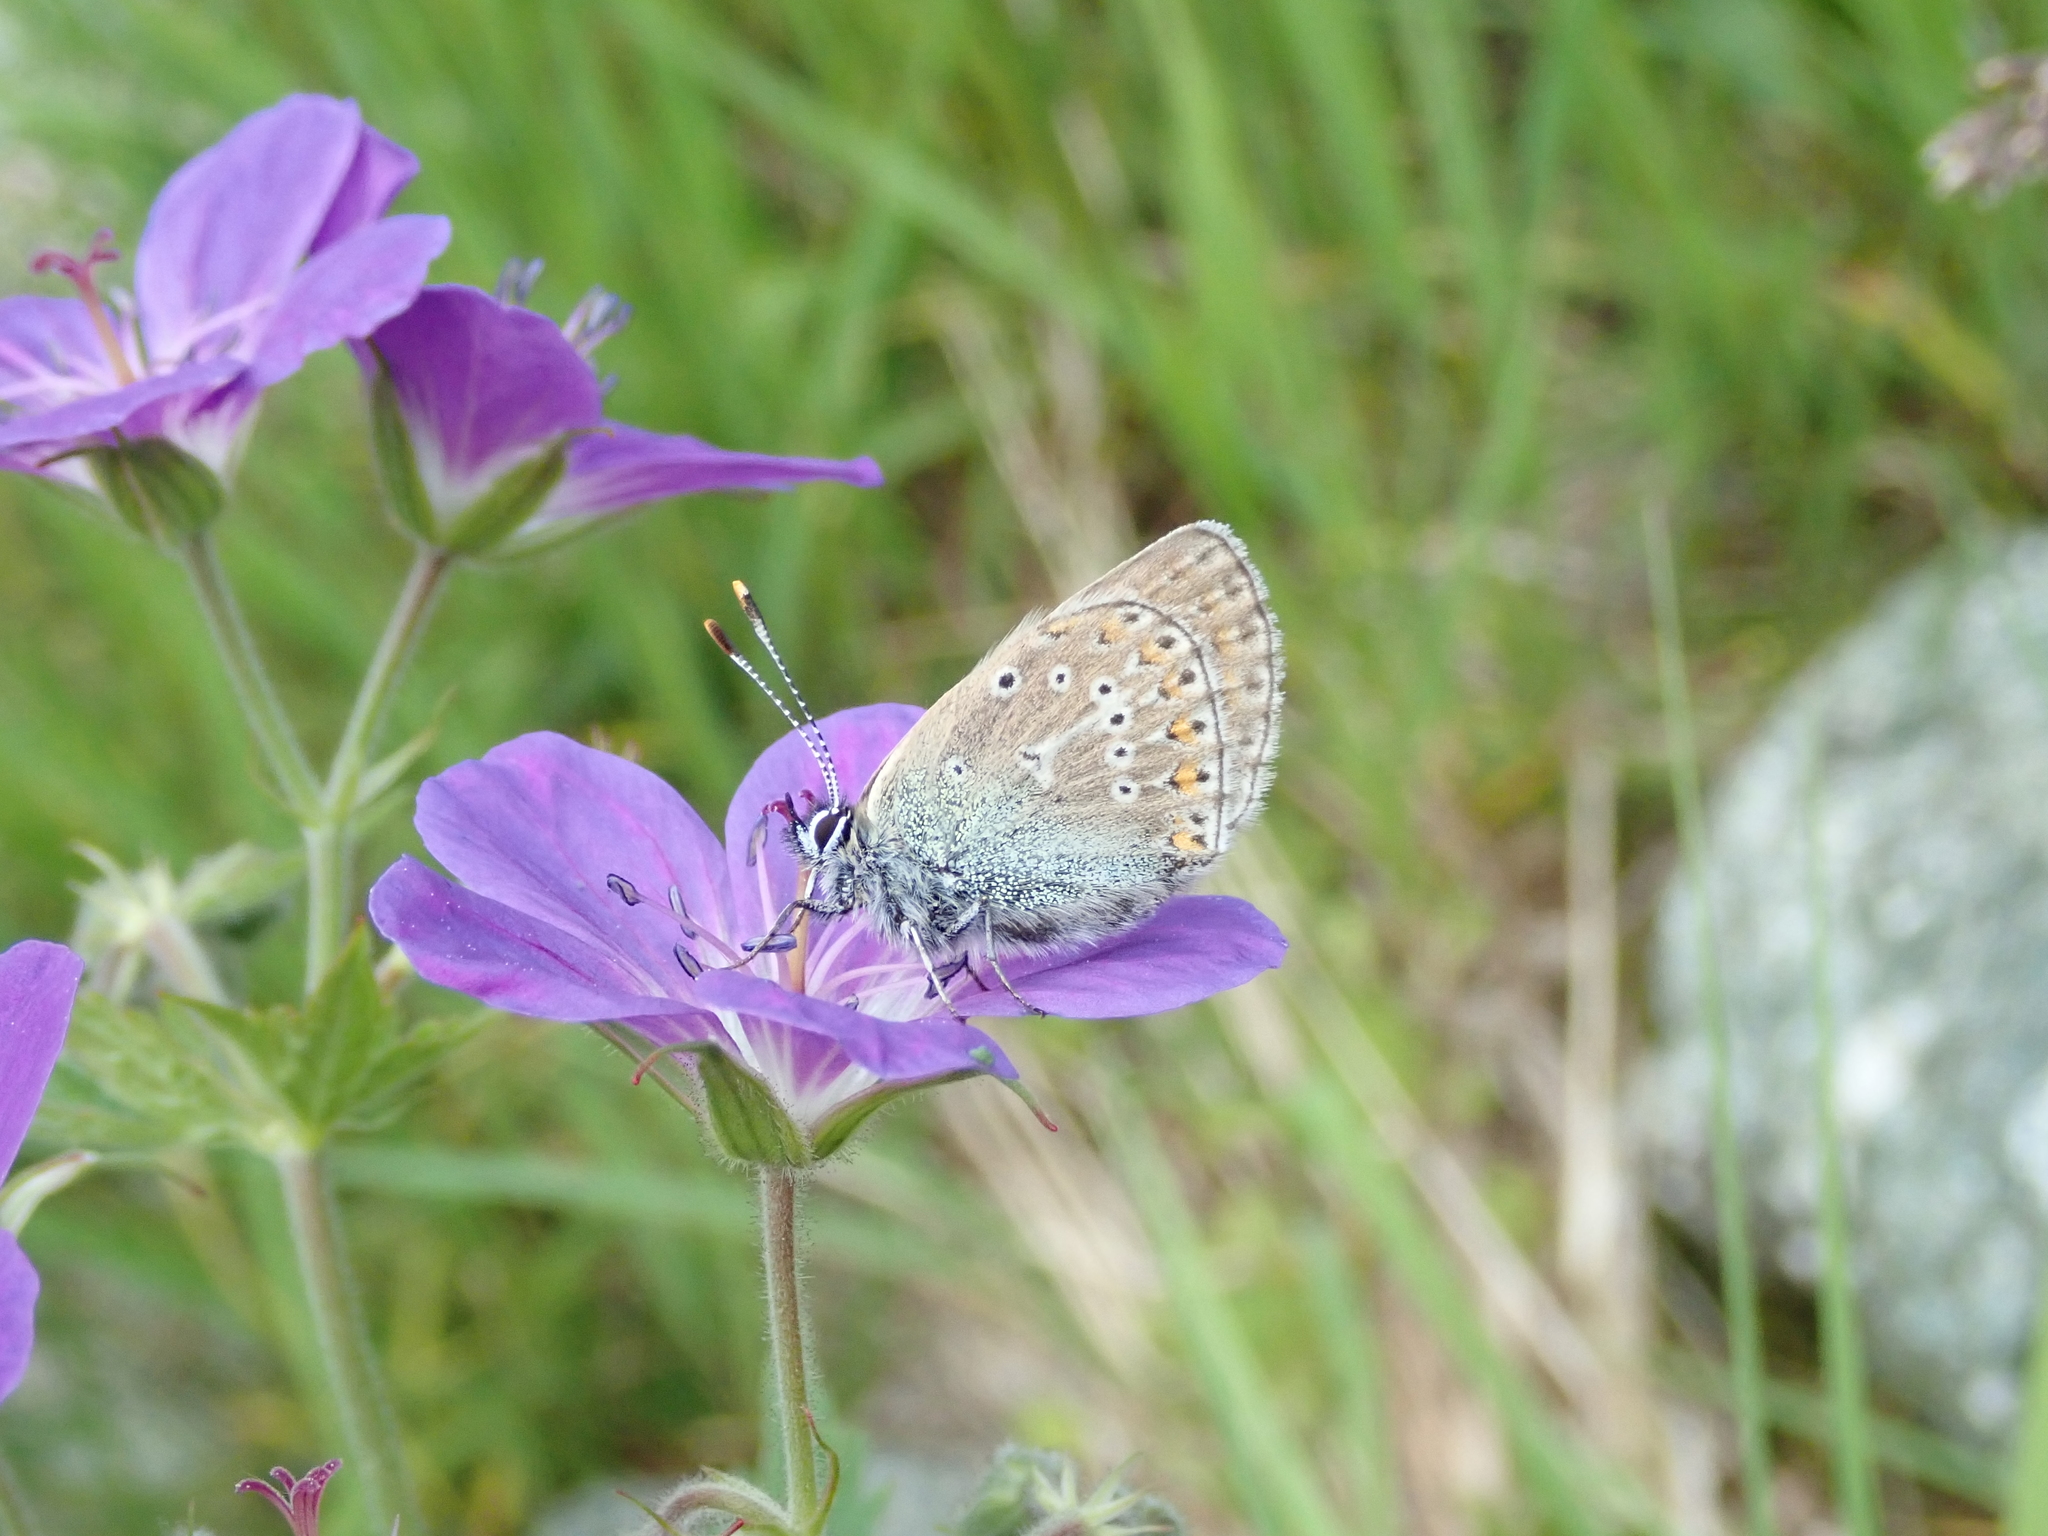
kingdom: Animalia
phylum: Arthropoda
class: Insecta
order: Lepidoptera
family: Lycaenidae
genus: Eumedonia
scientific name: Eumedonia eumedon
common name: Geranium argus
